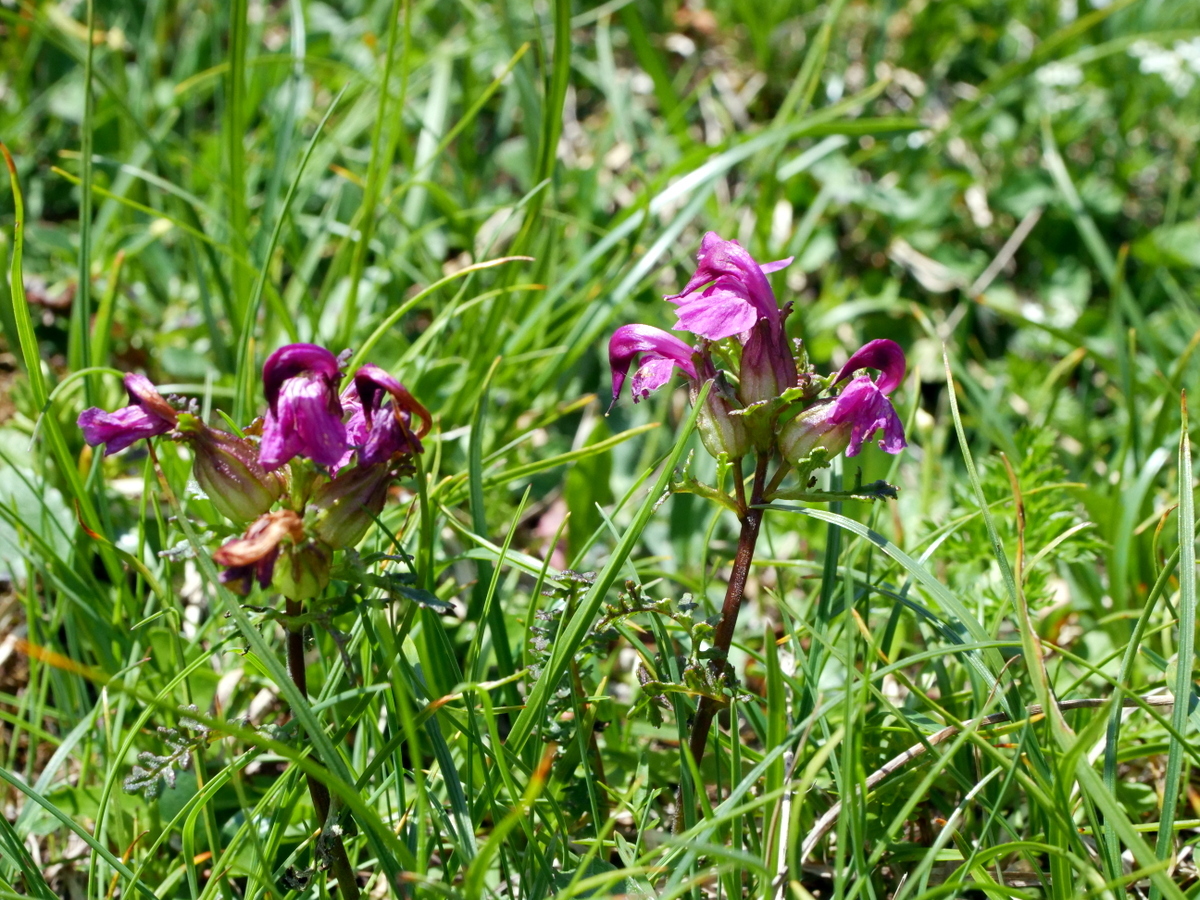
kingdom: Plantae
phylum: Tracheophyta
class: Magnoliopsida
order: Lamiales
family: Orobanchaceae
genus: Pedicularis
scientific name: Pedicularis rostratocapitata
